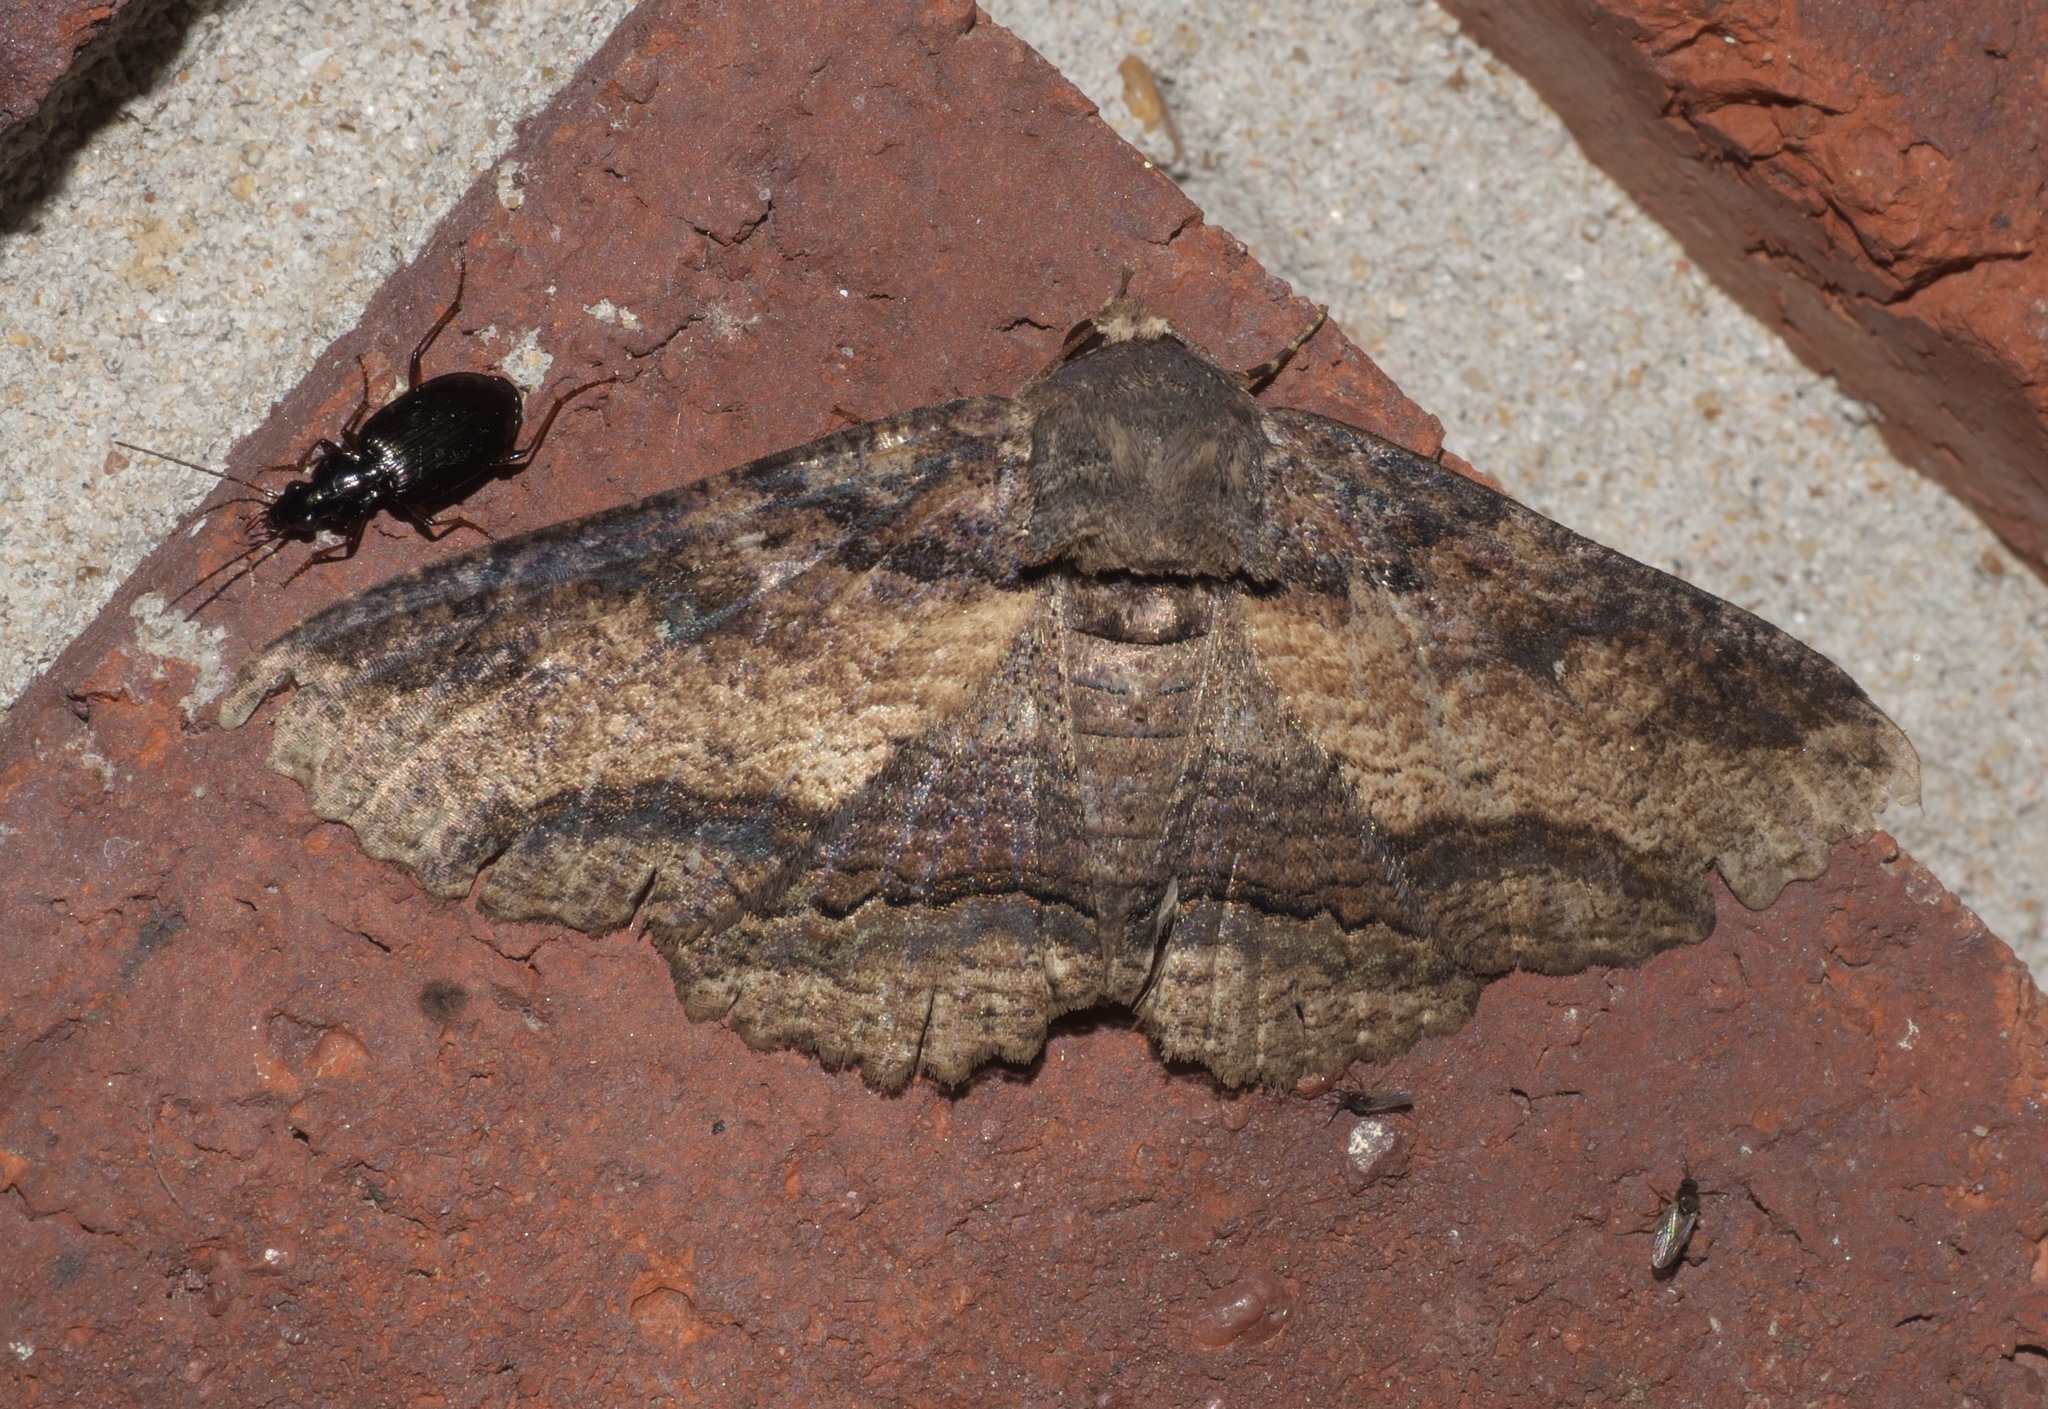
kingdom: Animalia
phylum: Arthropoda
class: Insecta
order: Lepidoptera
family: Erebidae
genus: Zale
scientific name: Zale lunata
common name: Lunate zale moth
